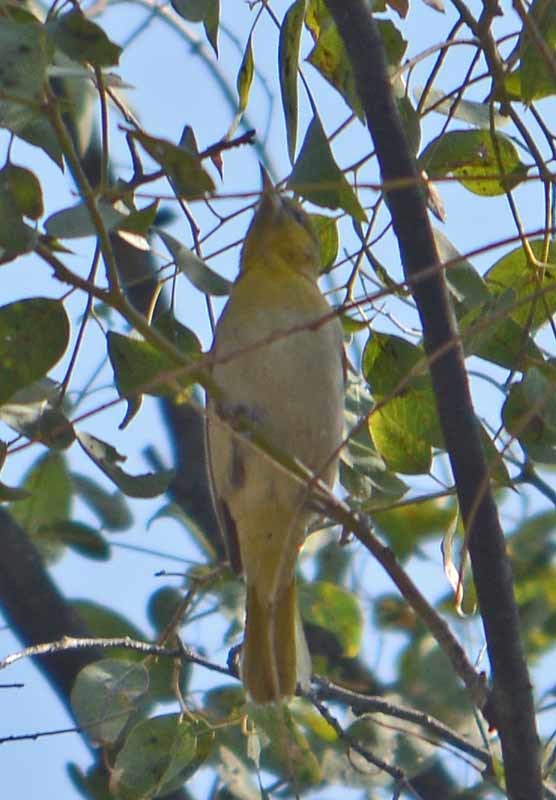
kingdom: Animalia
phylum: Chordata
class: Aves
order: Passeriformes
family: Icteridae
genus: Icterus
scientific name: Icterus bullockii
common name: Bullock's oriole
